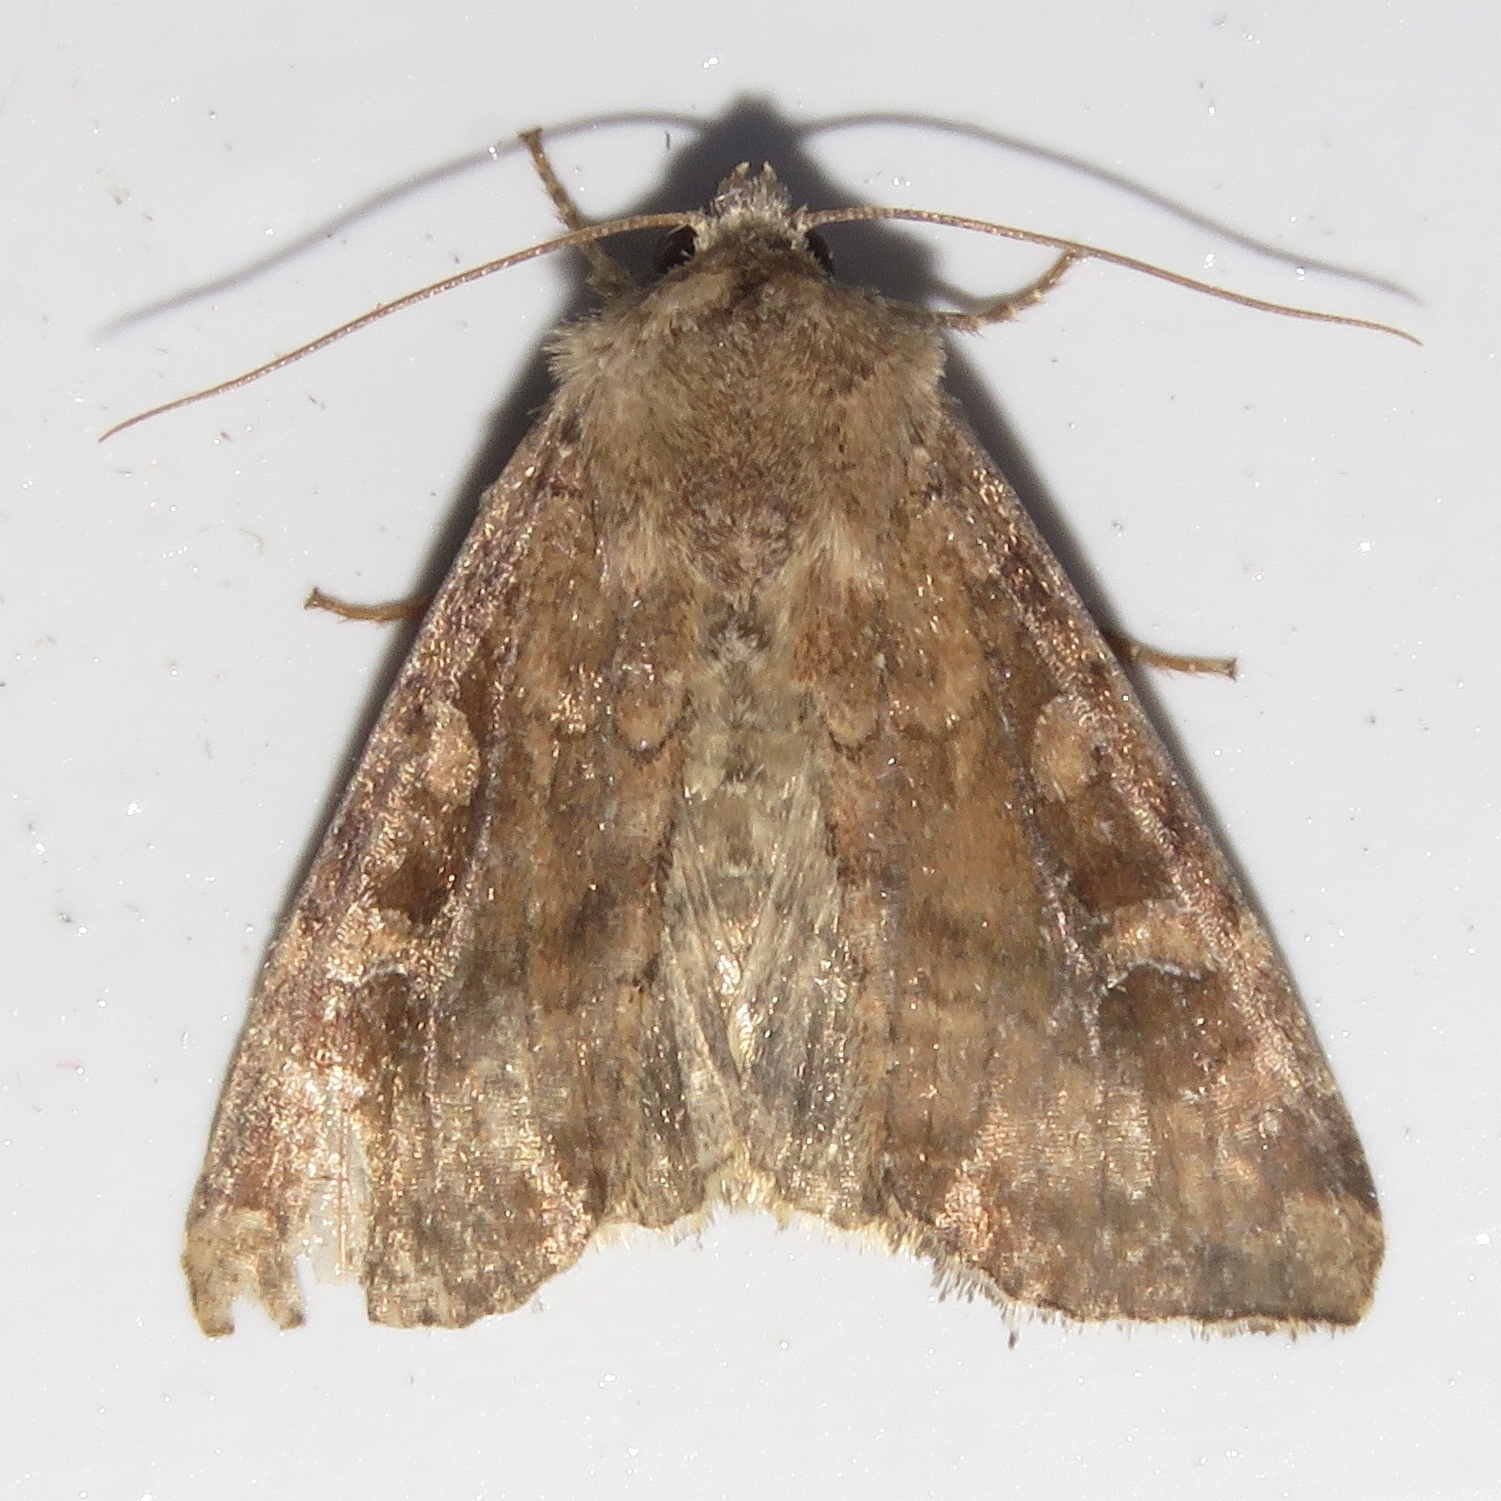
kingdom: Animalia
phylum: Arthropoda
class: Insecta
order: Lepidoptera
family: Noctuidae
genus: Loscopia
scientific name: Loscopia velata
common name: Veiled ear moth
